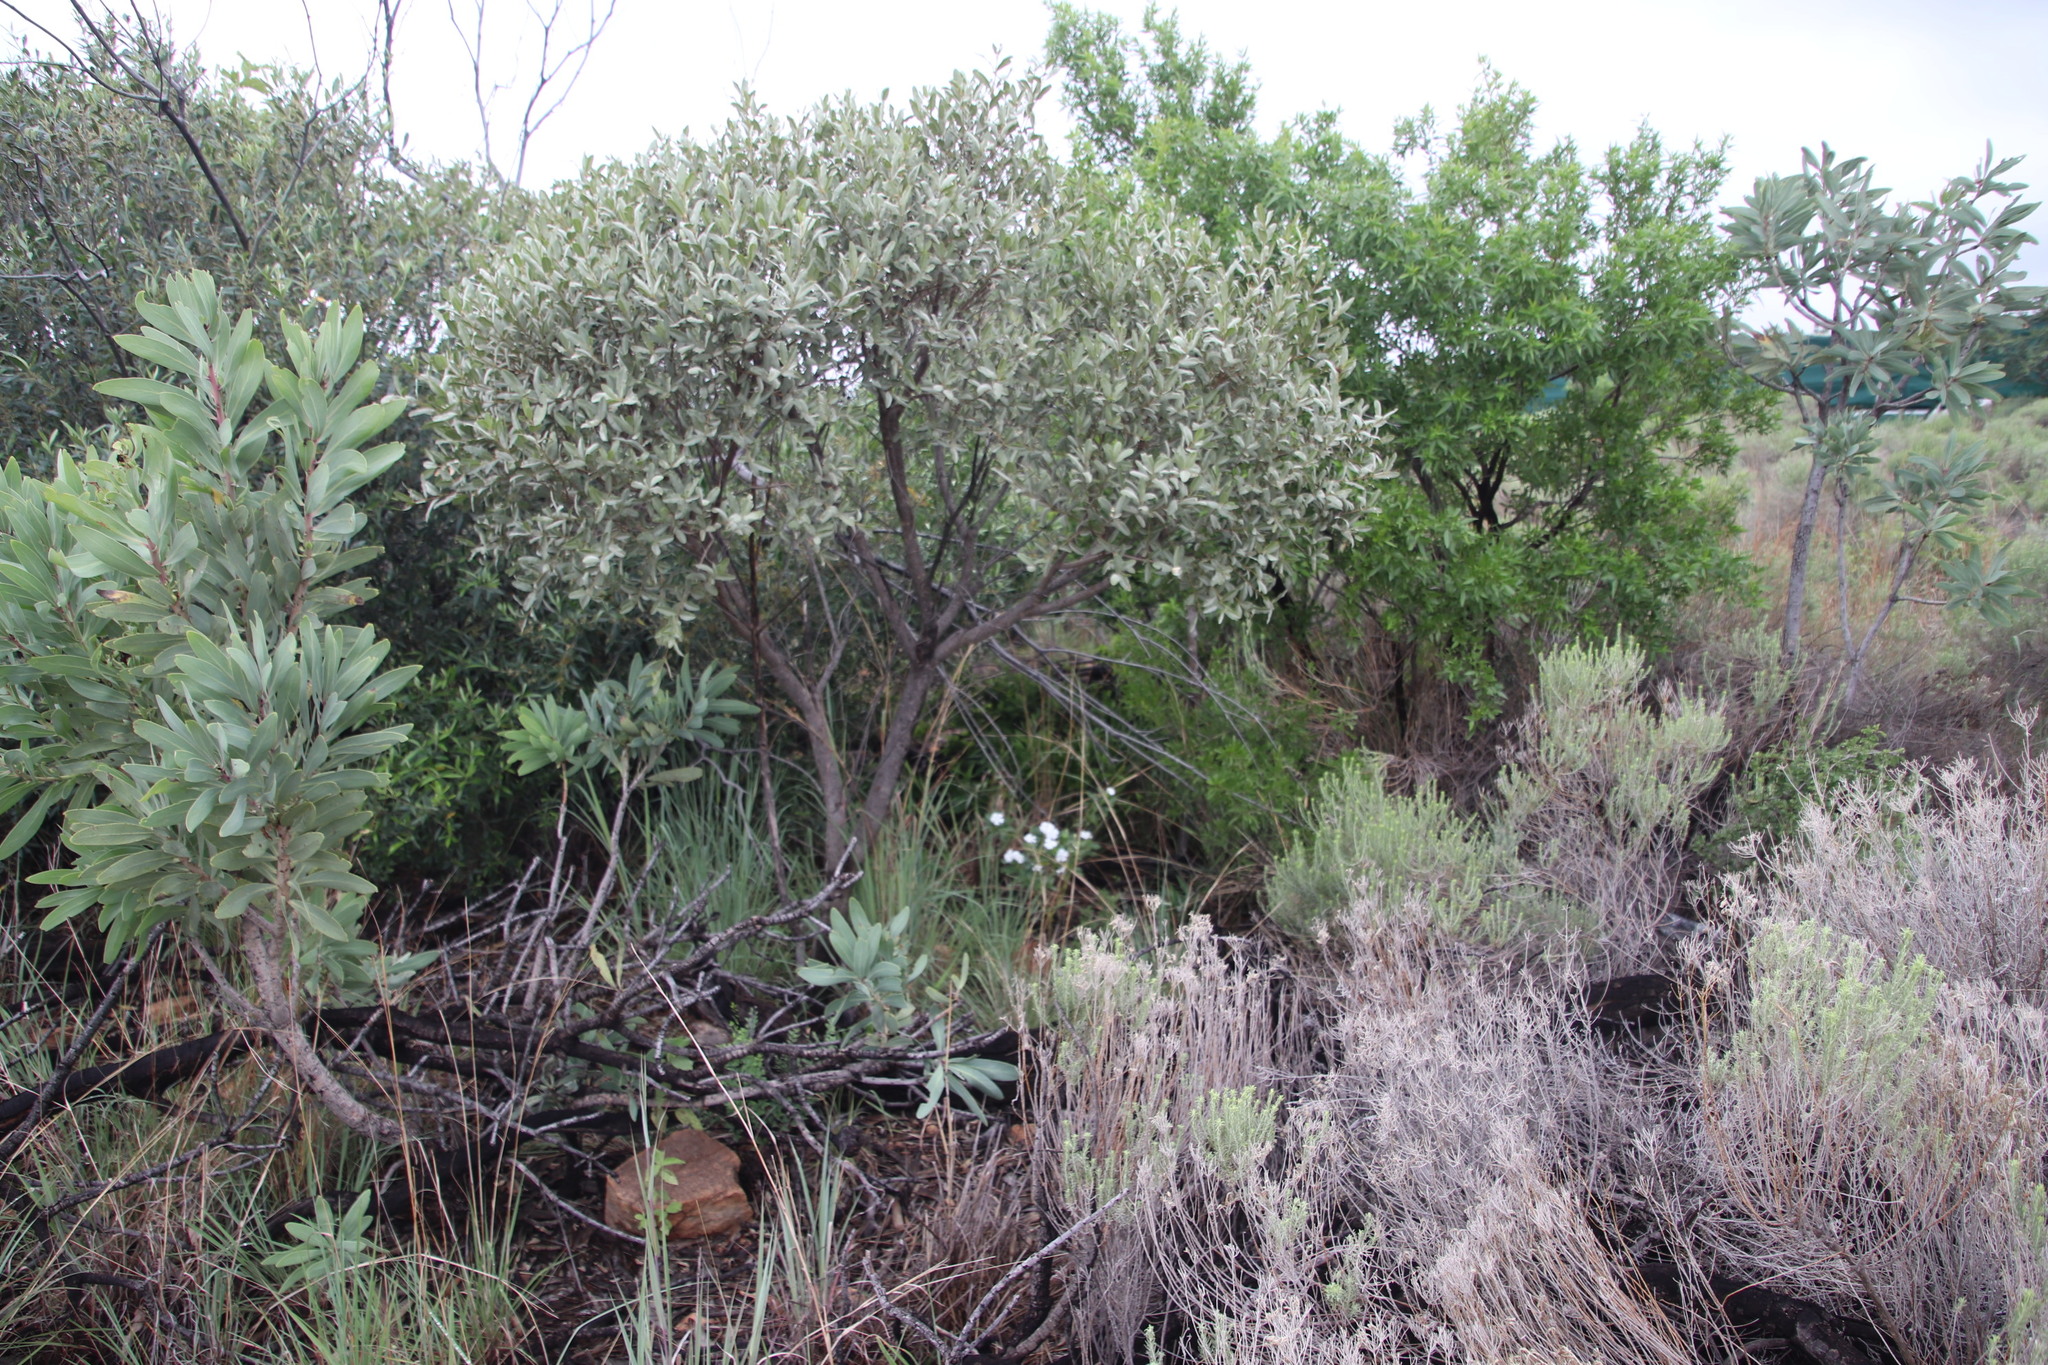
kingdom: Plantae
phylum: Tracheophyta
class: Magnoliopsida
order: Gentianales
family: Apocynaceae
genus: Catharanthus
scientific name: Catharanthus roseus
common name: Madagascar periwinkle
